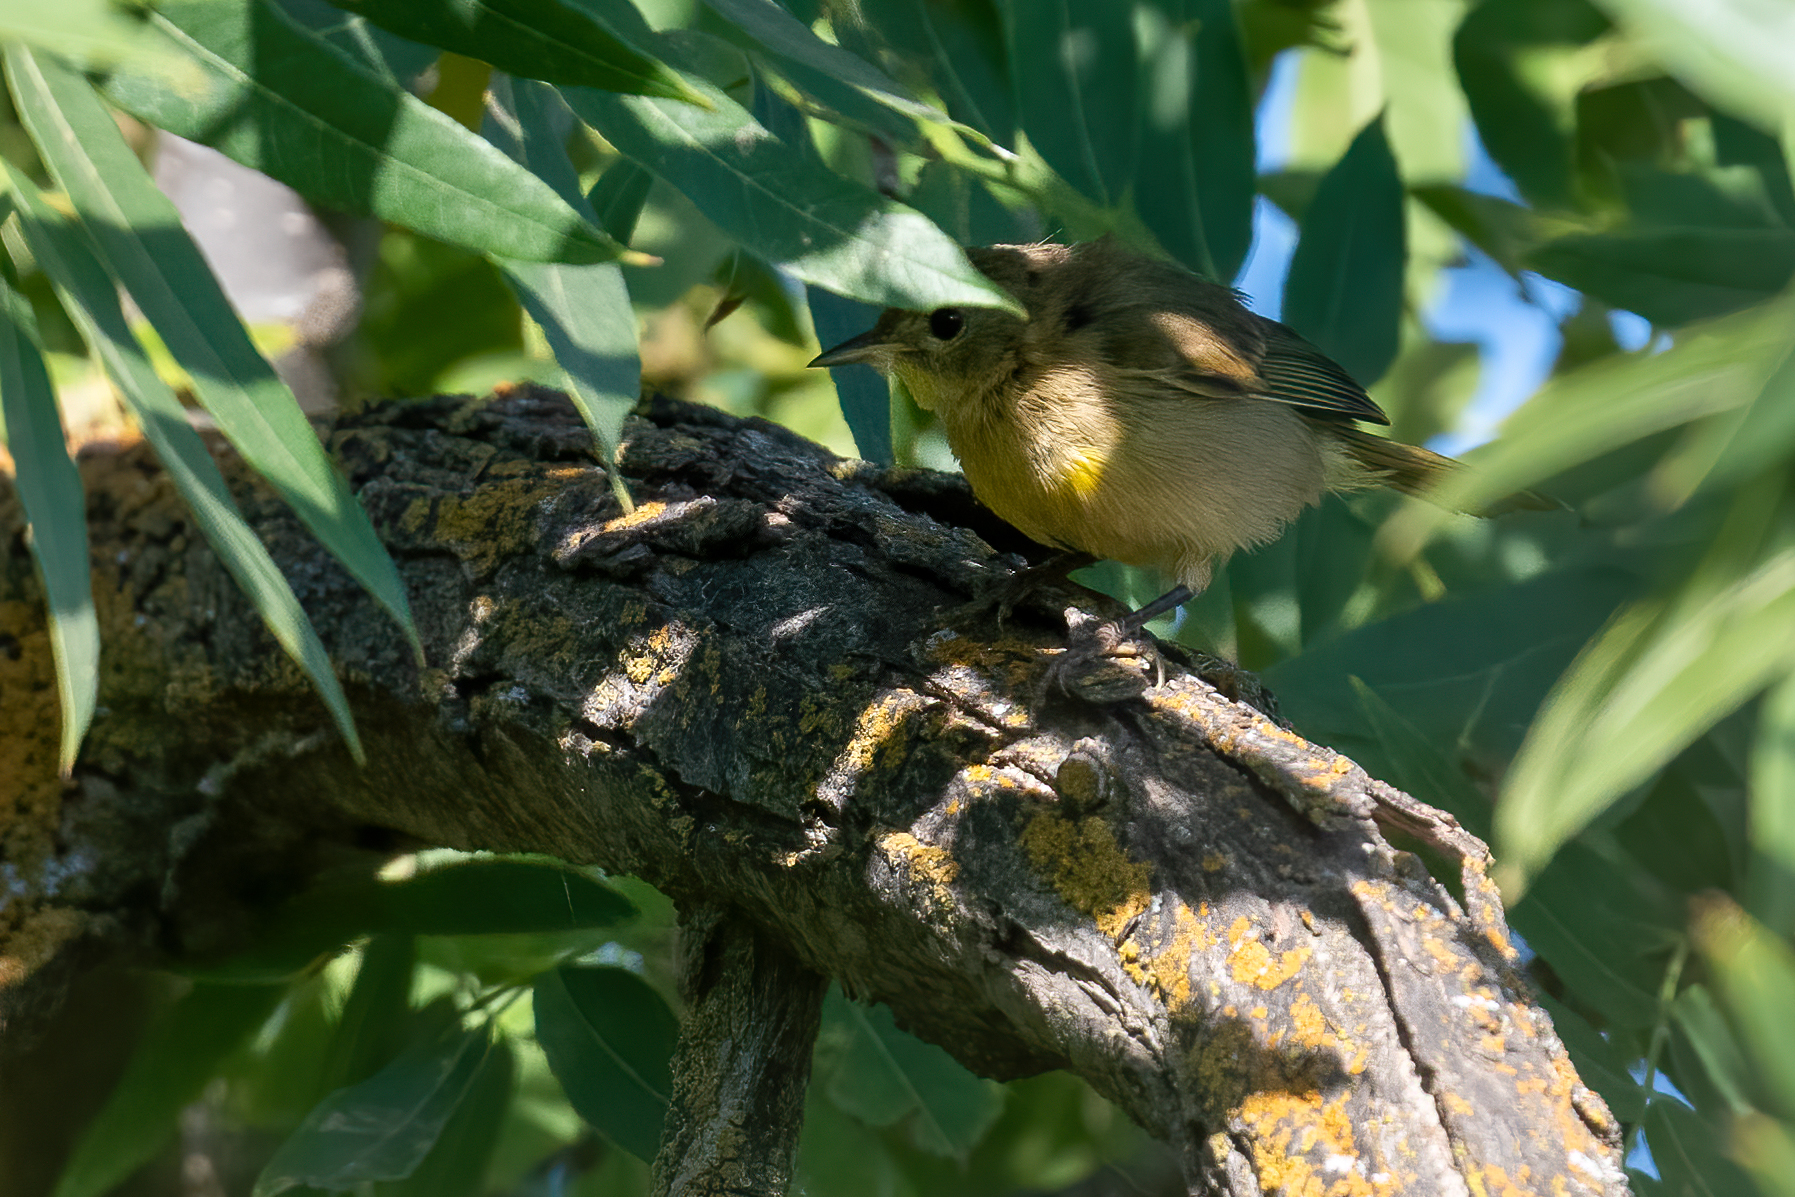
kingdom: Animalia
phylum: Chordata
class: Aves
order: Passeriformes
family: Parulidae
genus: Geothlypis
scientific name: Geothlypis trichas
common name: Common yellowthroat
